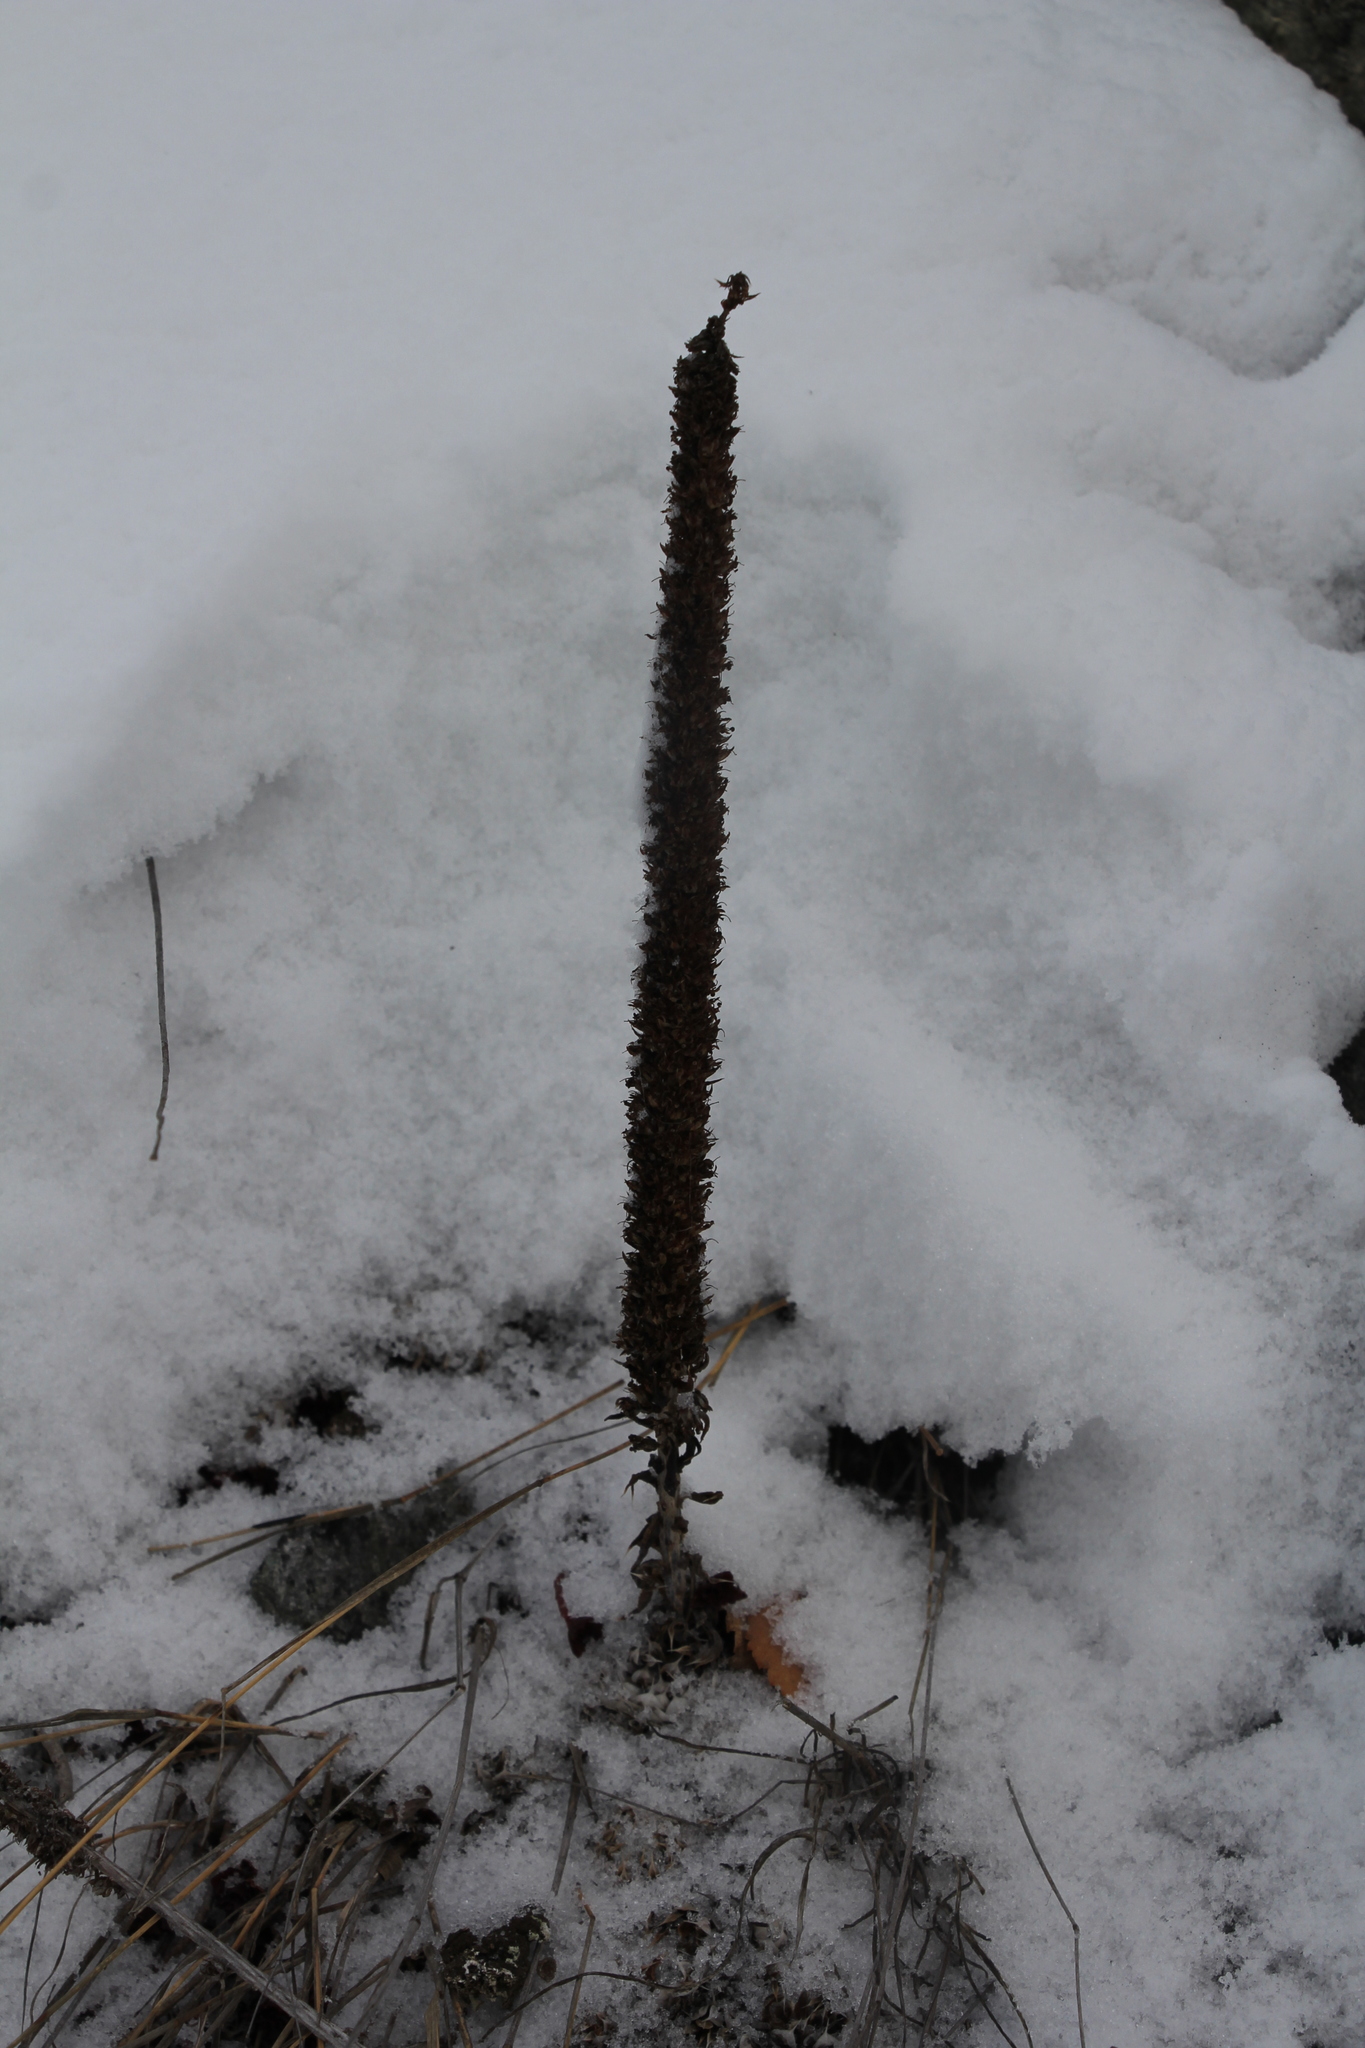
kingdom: Plantae
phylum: Tracheophyta
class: Magnoliopsida
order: Saxifragales
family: Crassulaceae
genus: Orostachys
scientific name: Orostachys spinosa
